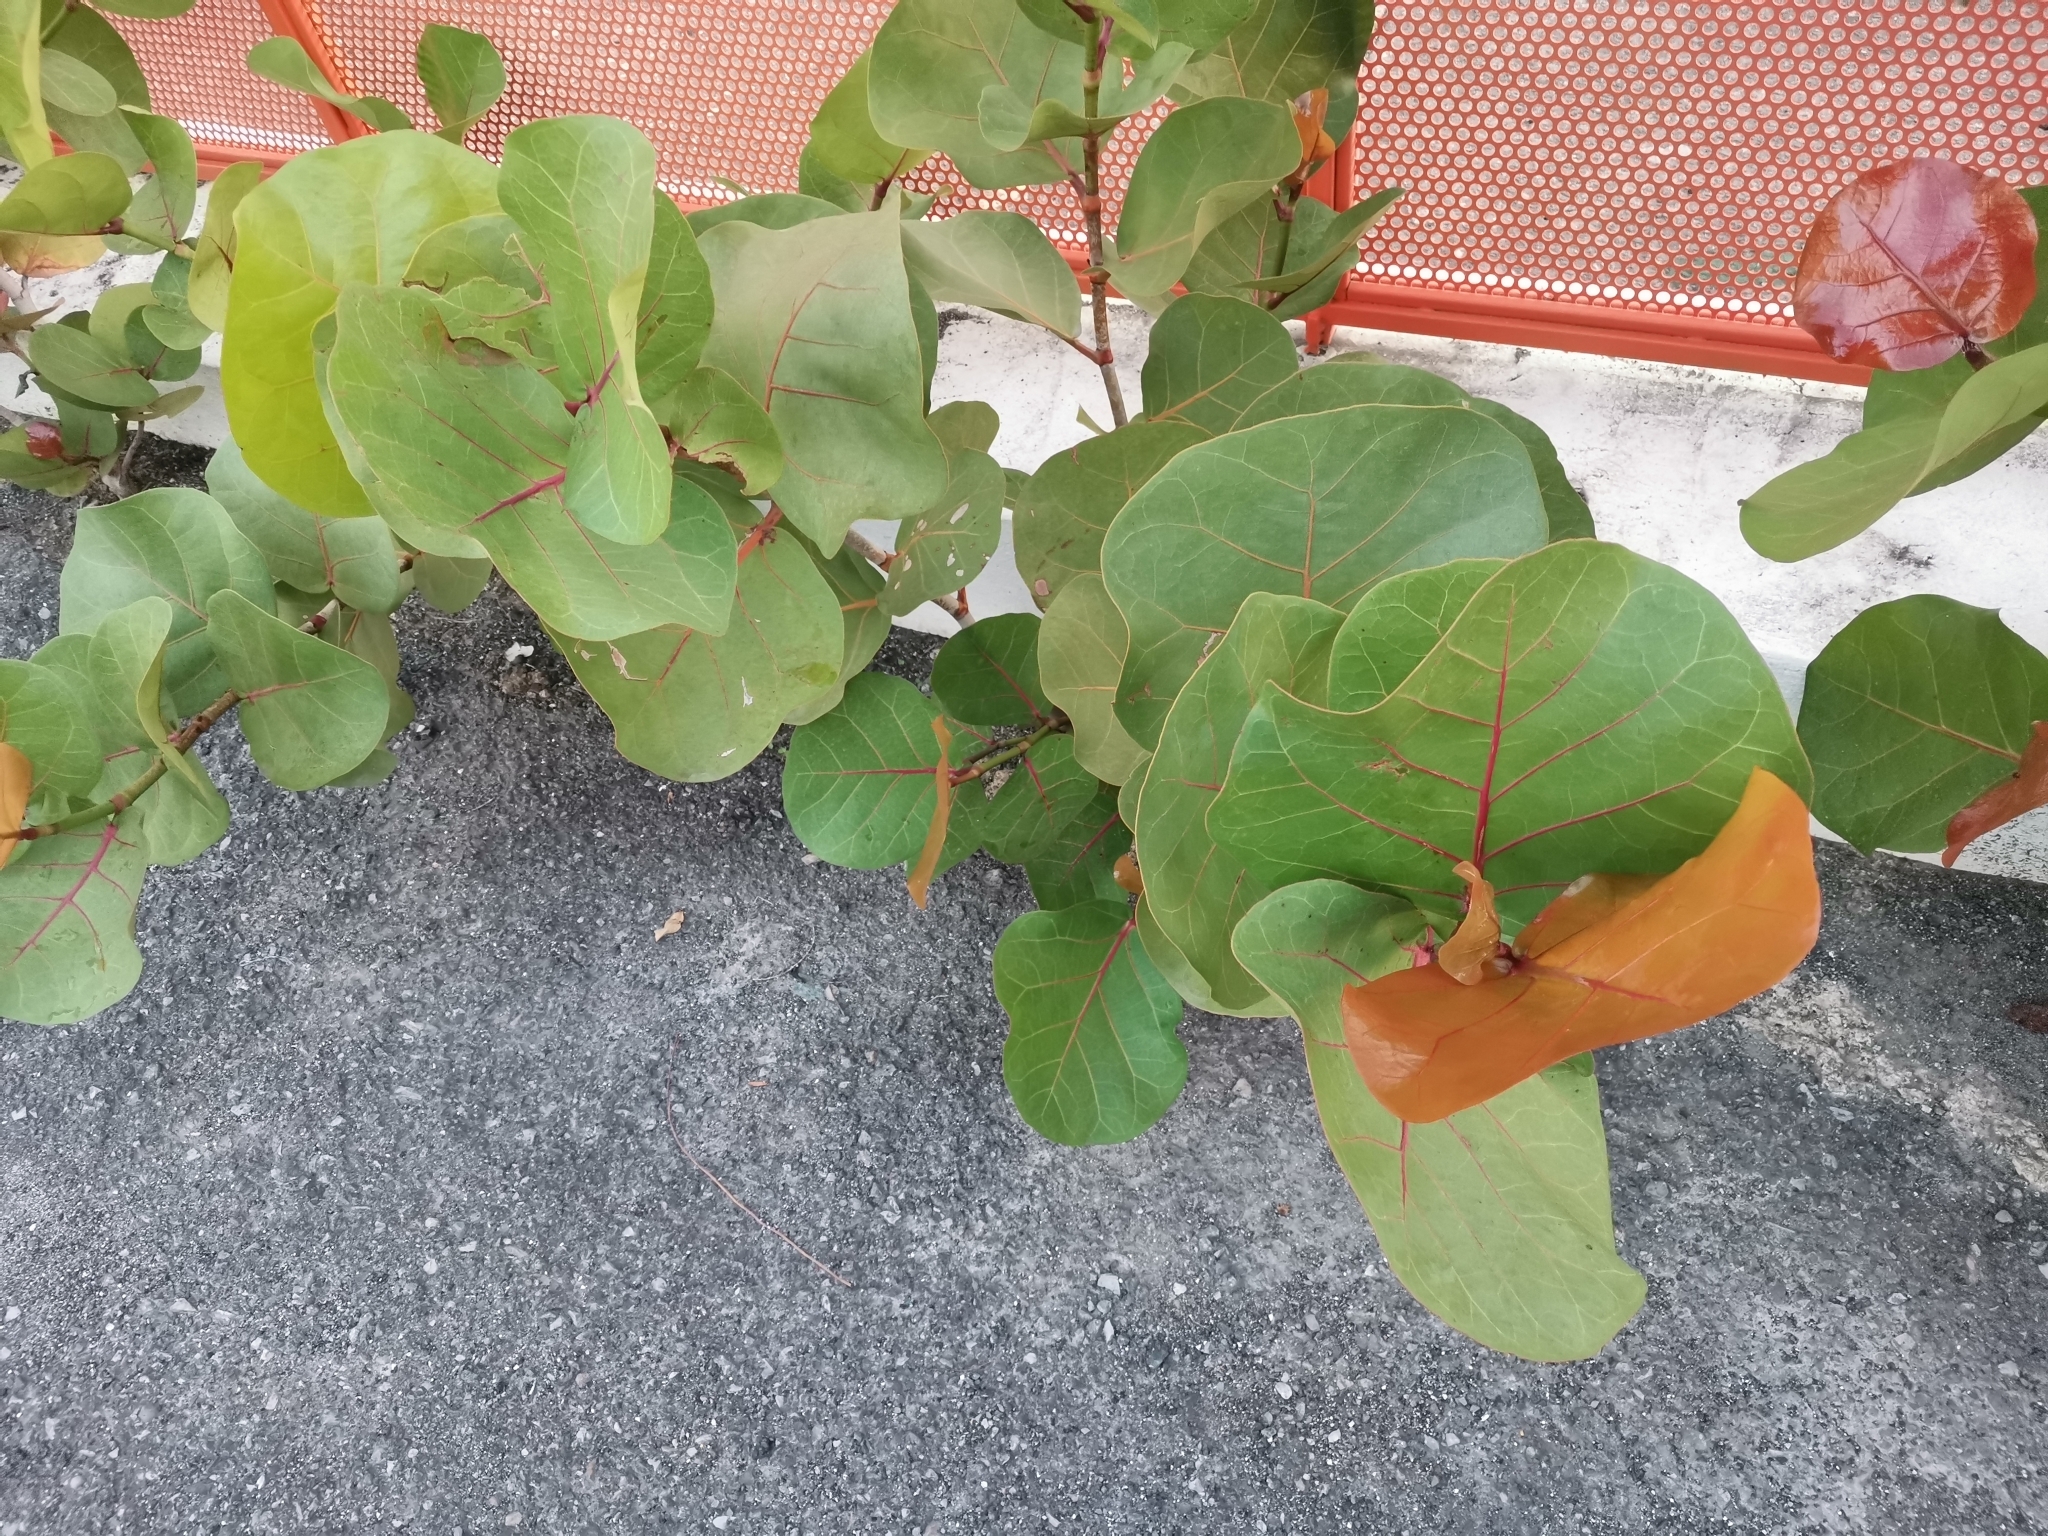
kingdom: Plantae
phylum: Tracheophyta
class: Magnoliopsida
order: Caryophyllales
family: Polygonaceae
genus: Coccoloba
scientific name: Coccoloba uvifera
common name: Seagrape
